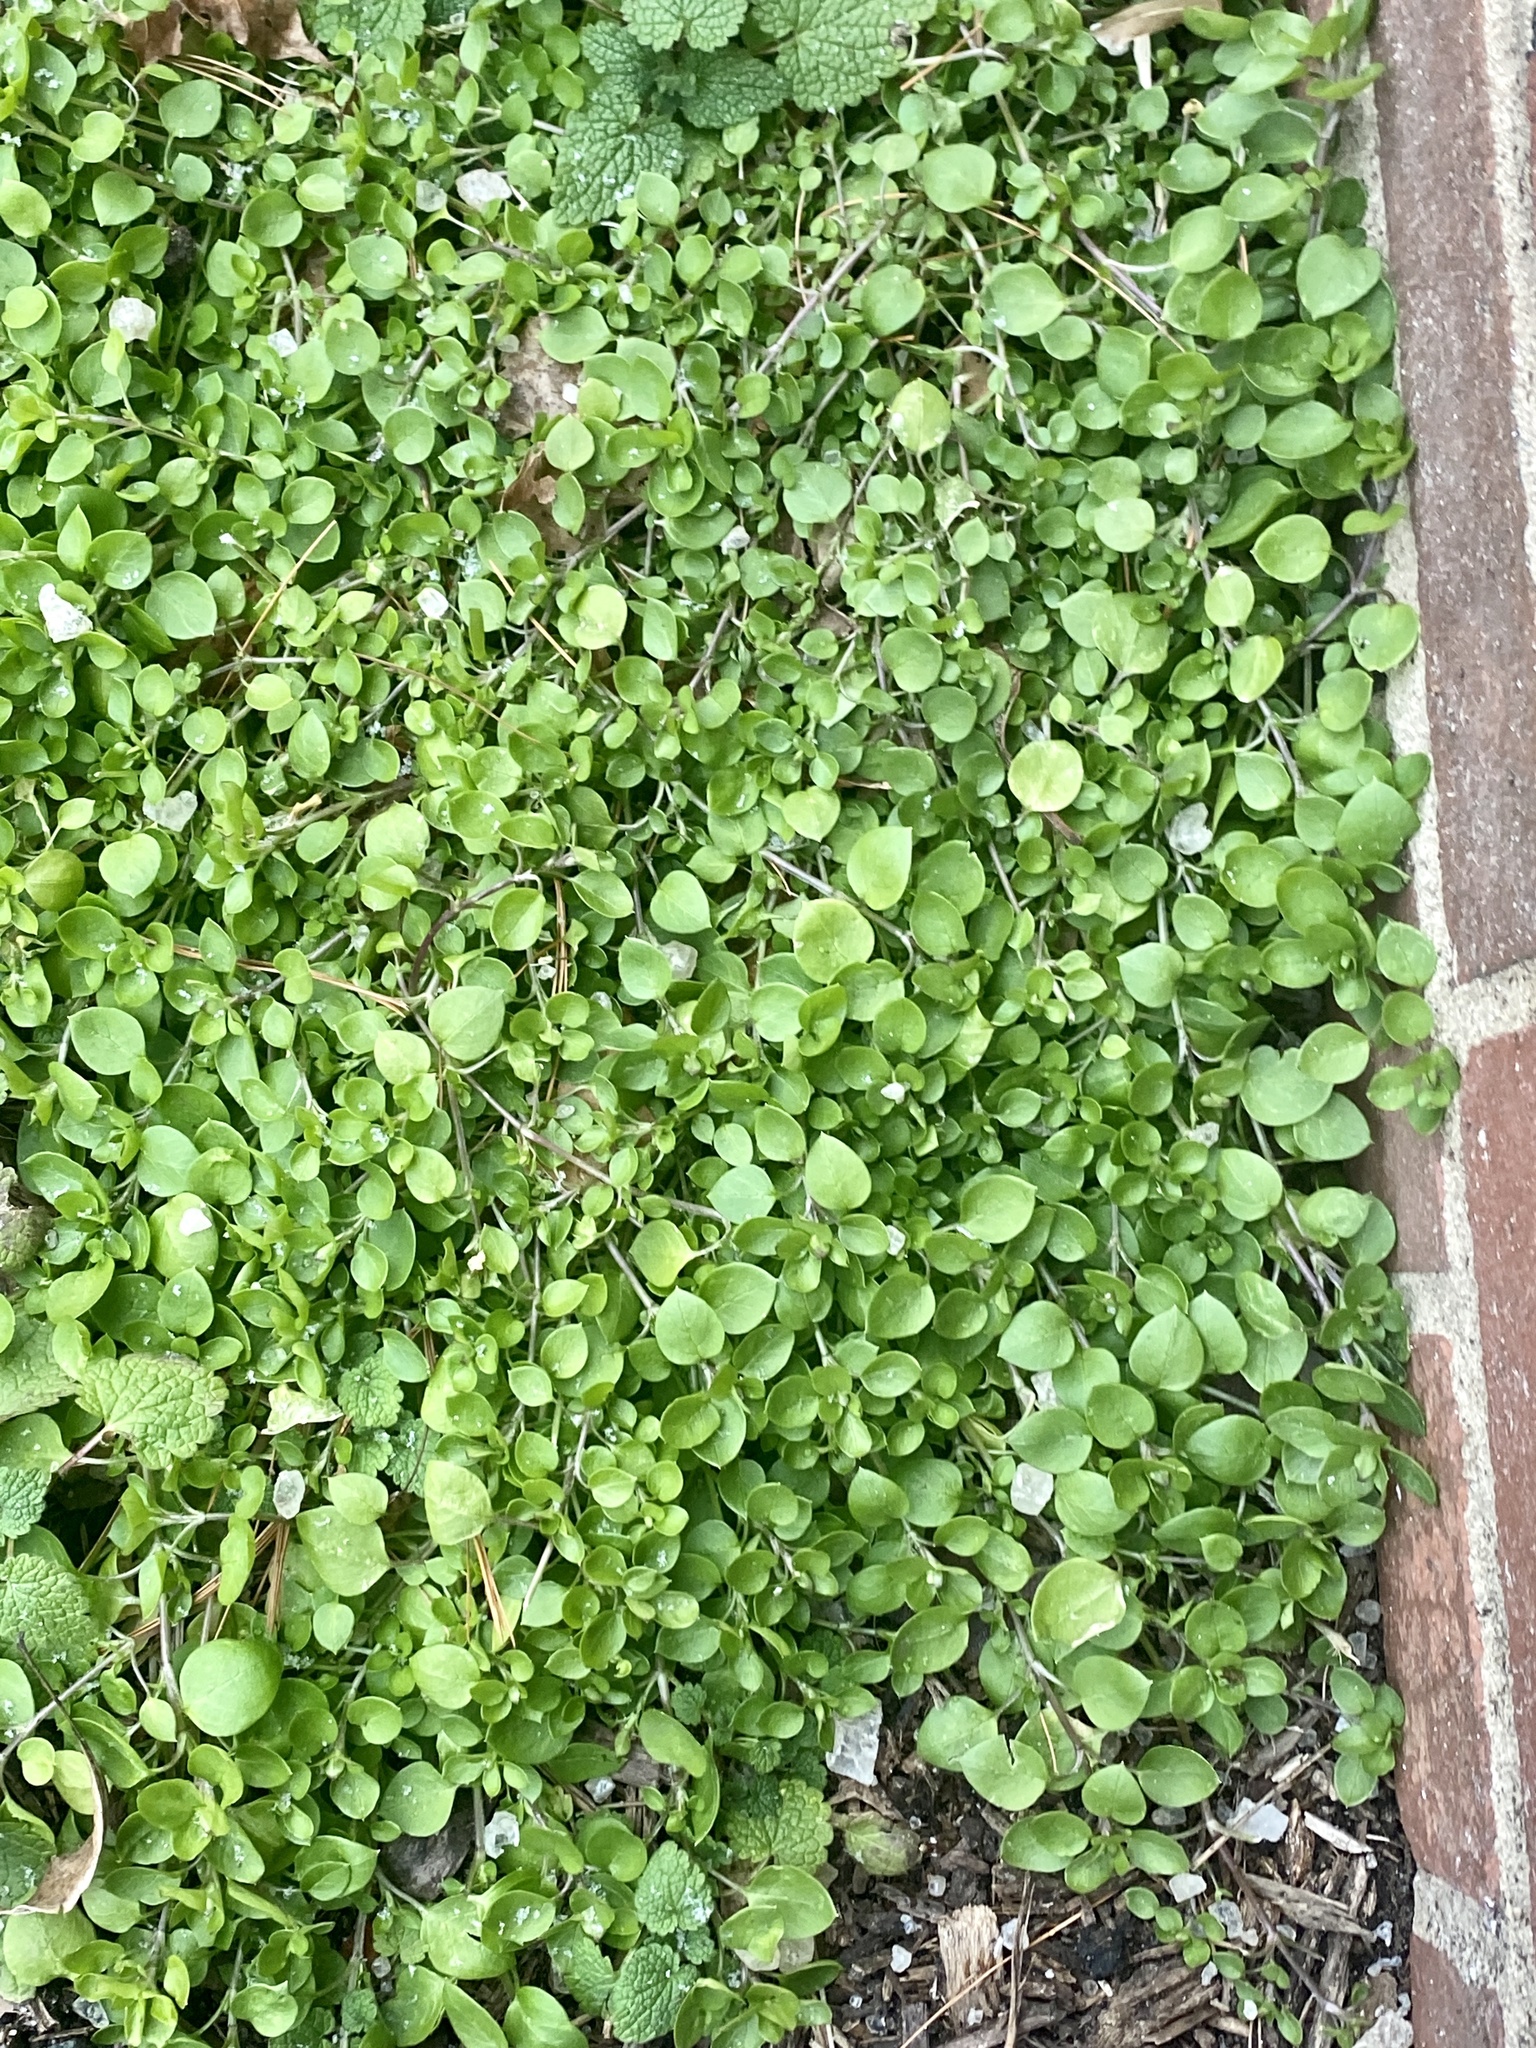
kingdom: Plantae
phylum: Tracheophyta
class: Magnoliopsida
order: Caryophyllales
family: Caryophyllaceae
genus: Stellaria
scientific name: Stellaria media
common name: Common chickweed
